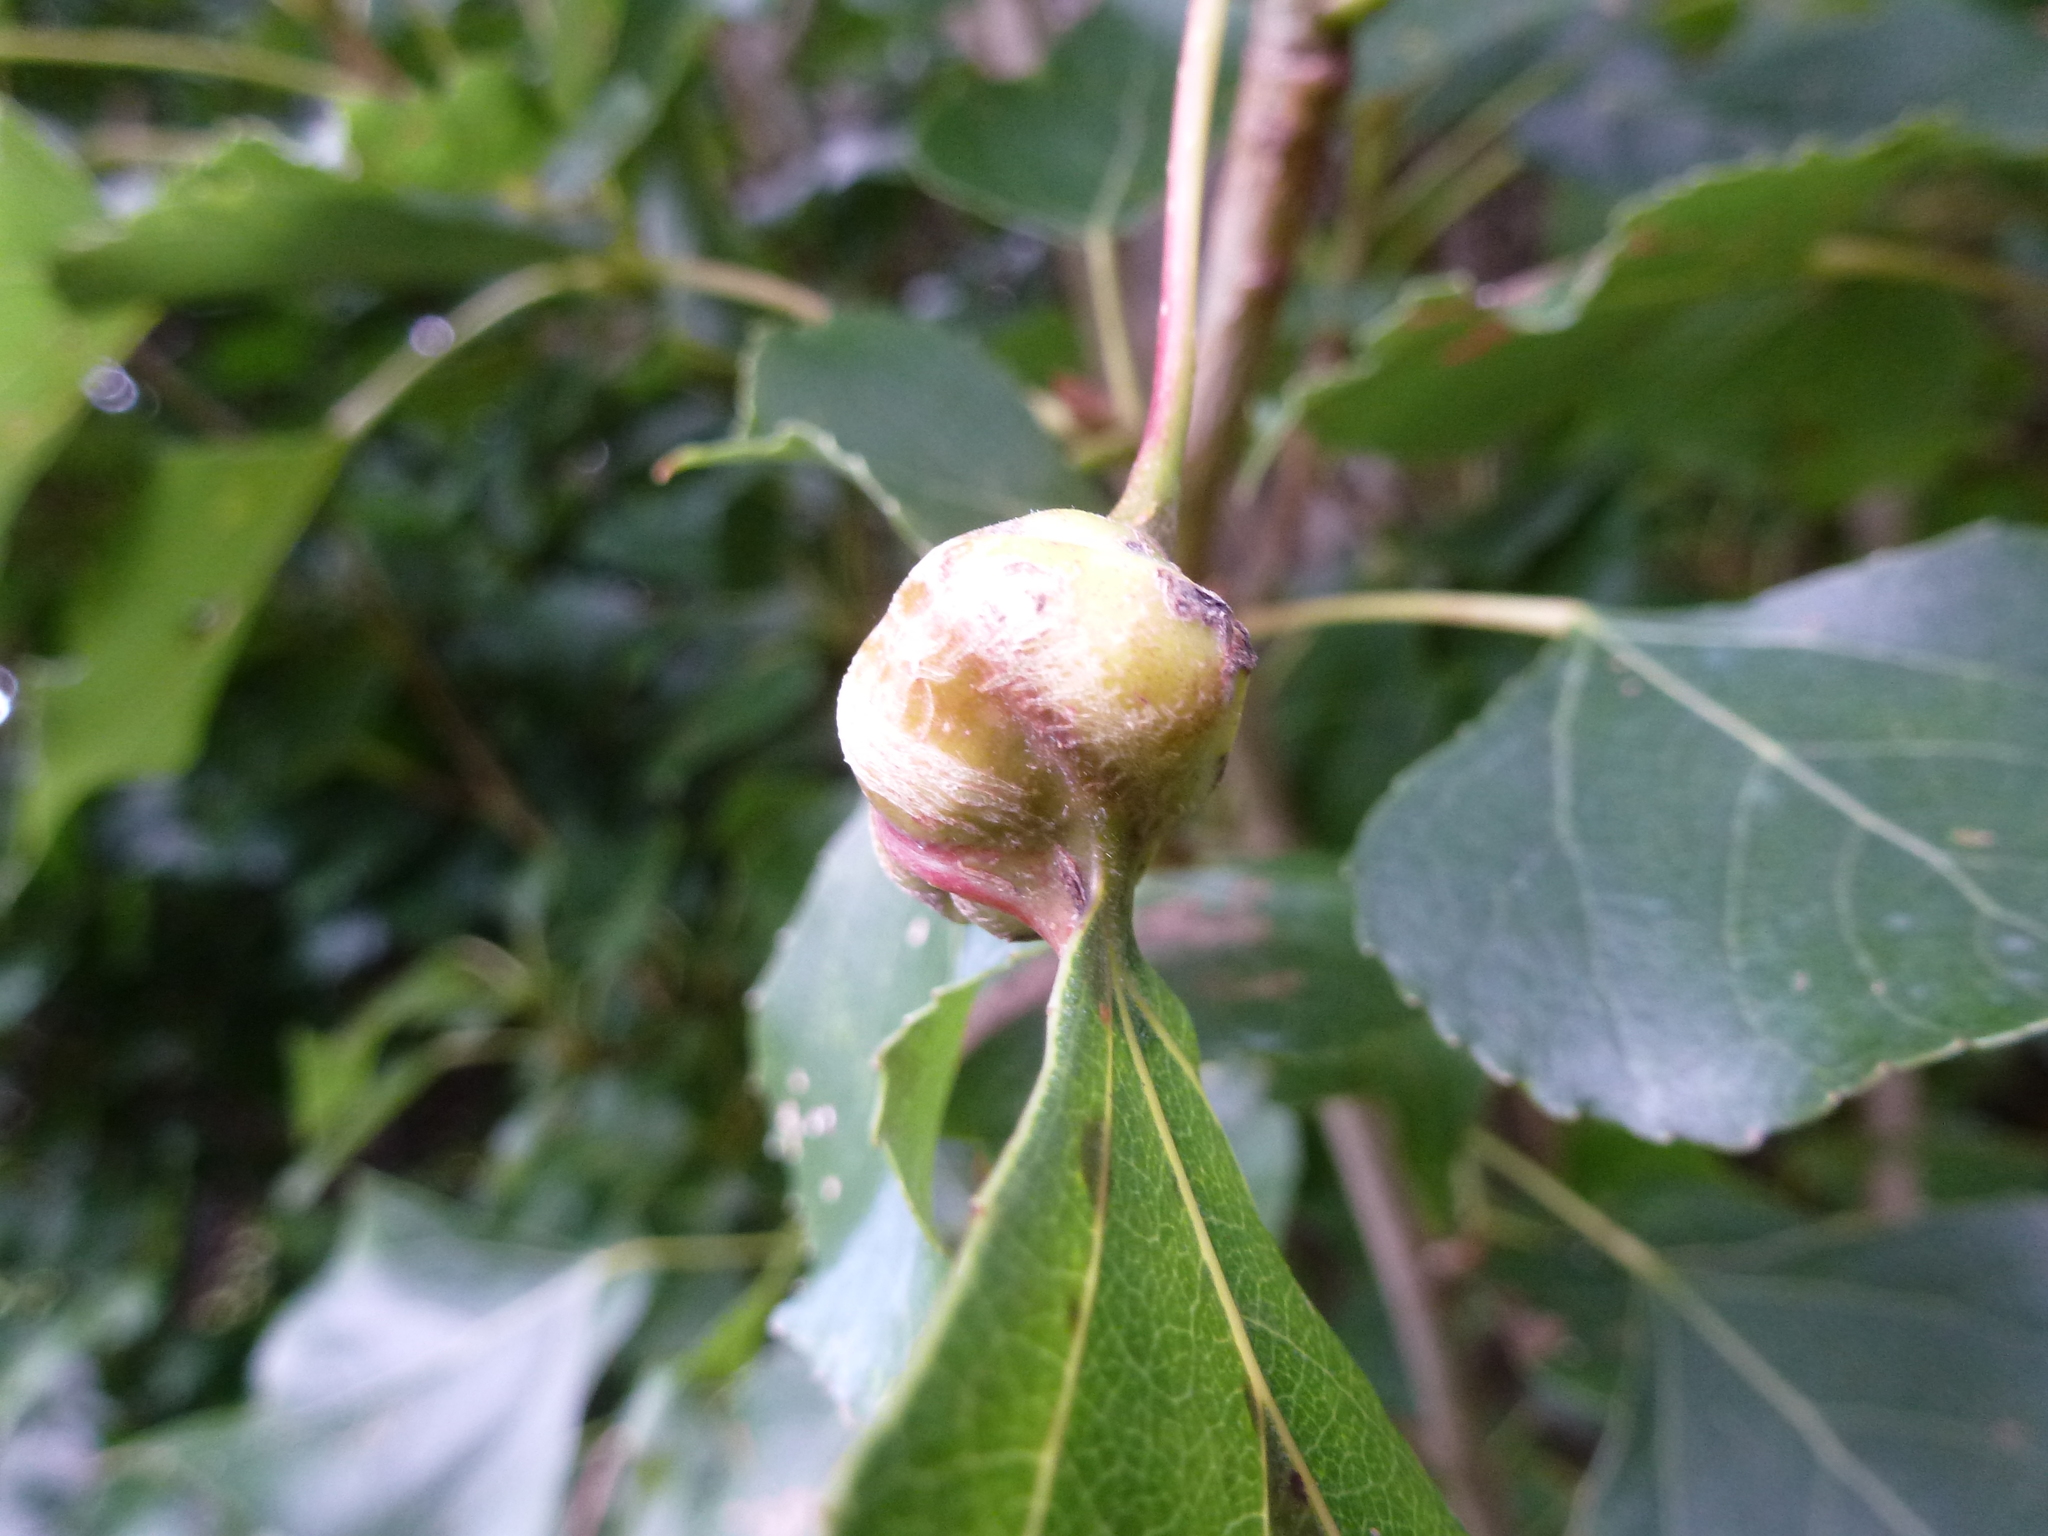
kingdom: Animalia
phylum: Arthropoda
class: Insecta
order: Hemiptera
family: Aphididae
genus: Pemphigus
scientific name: Pemphigus spyrothecae
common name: Aphid
